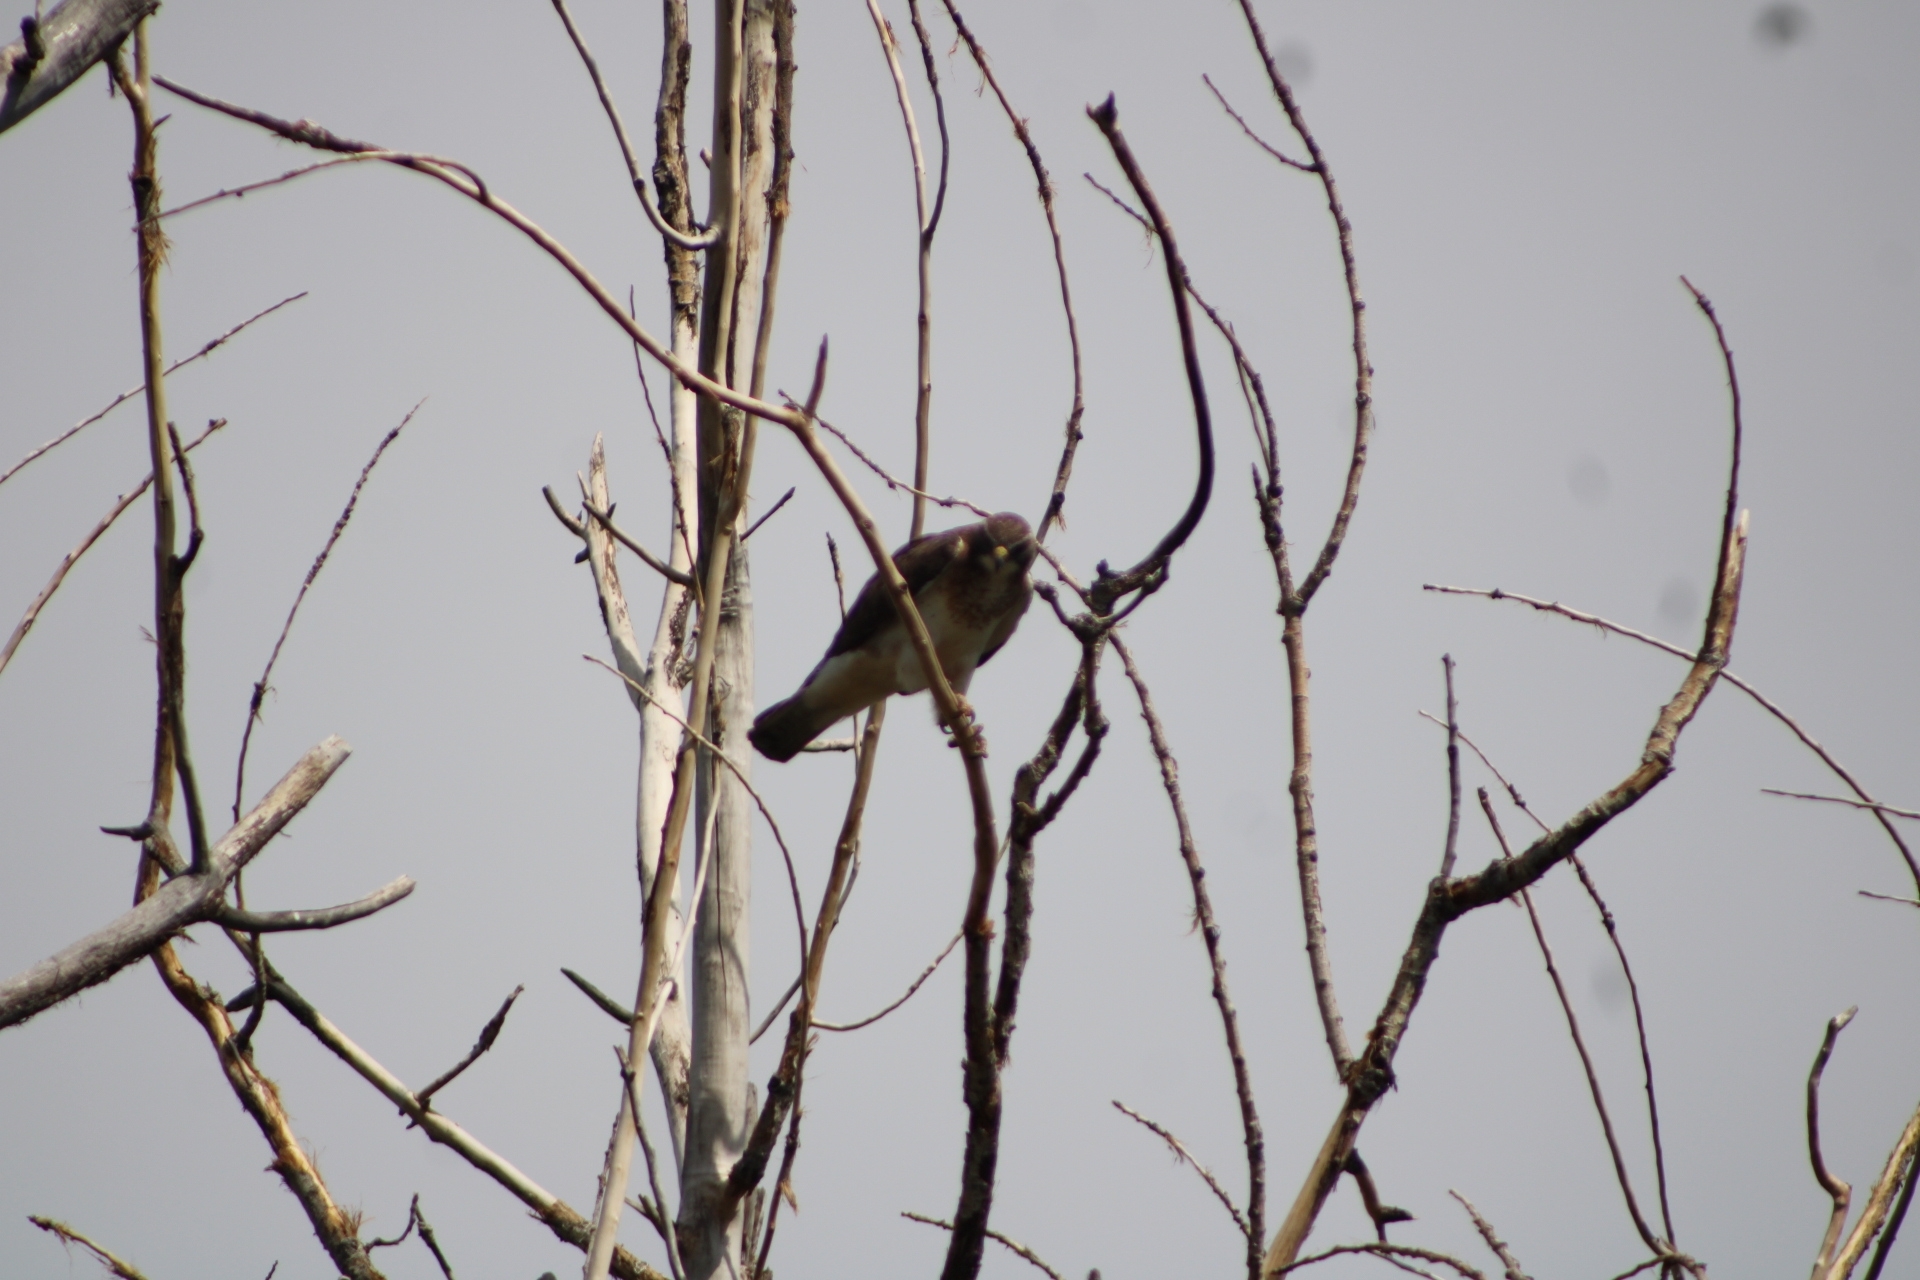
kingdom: Animalia
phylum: Chordata
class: Aves
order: Accipitriformes
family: Accipitridae
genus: Buteo
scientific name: Buteo swainsoni
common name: Swainson's hawk
